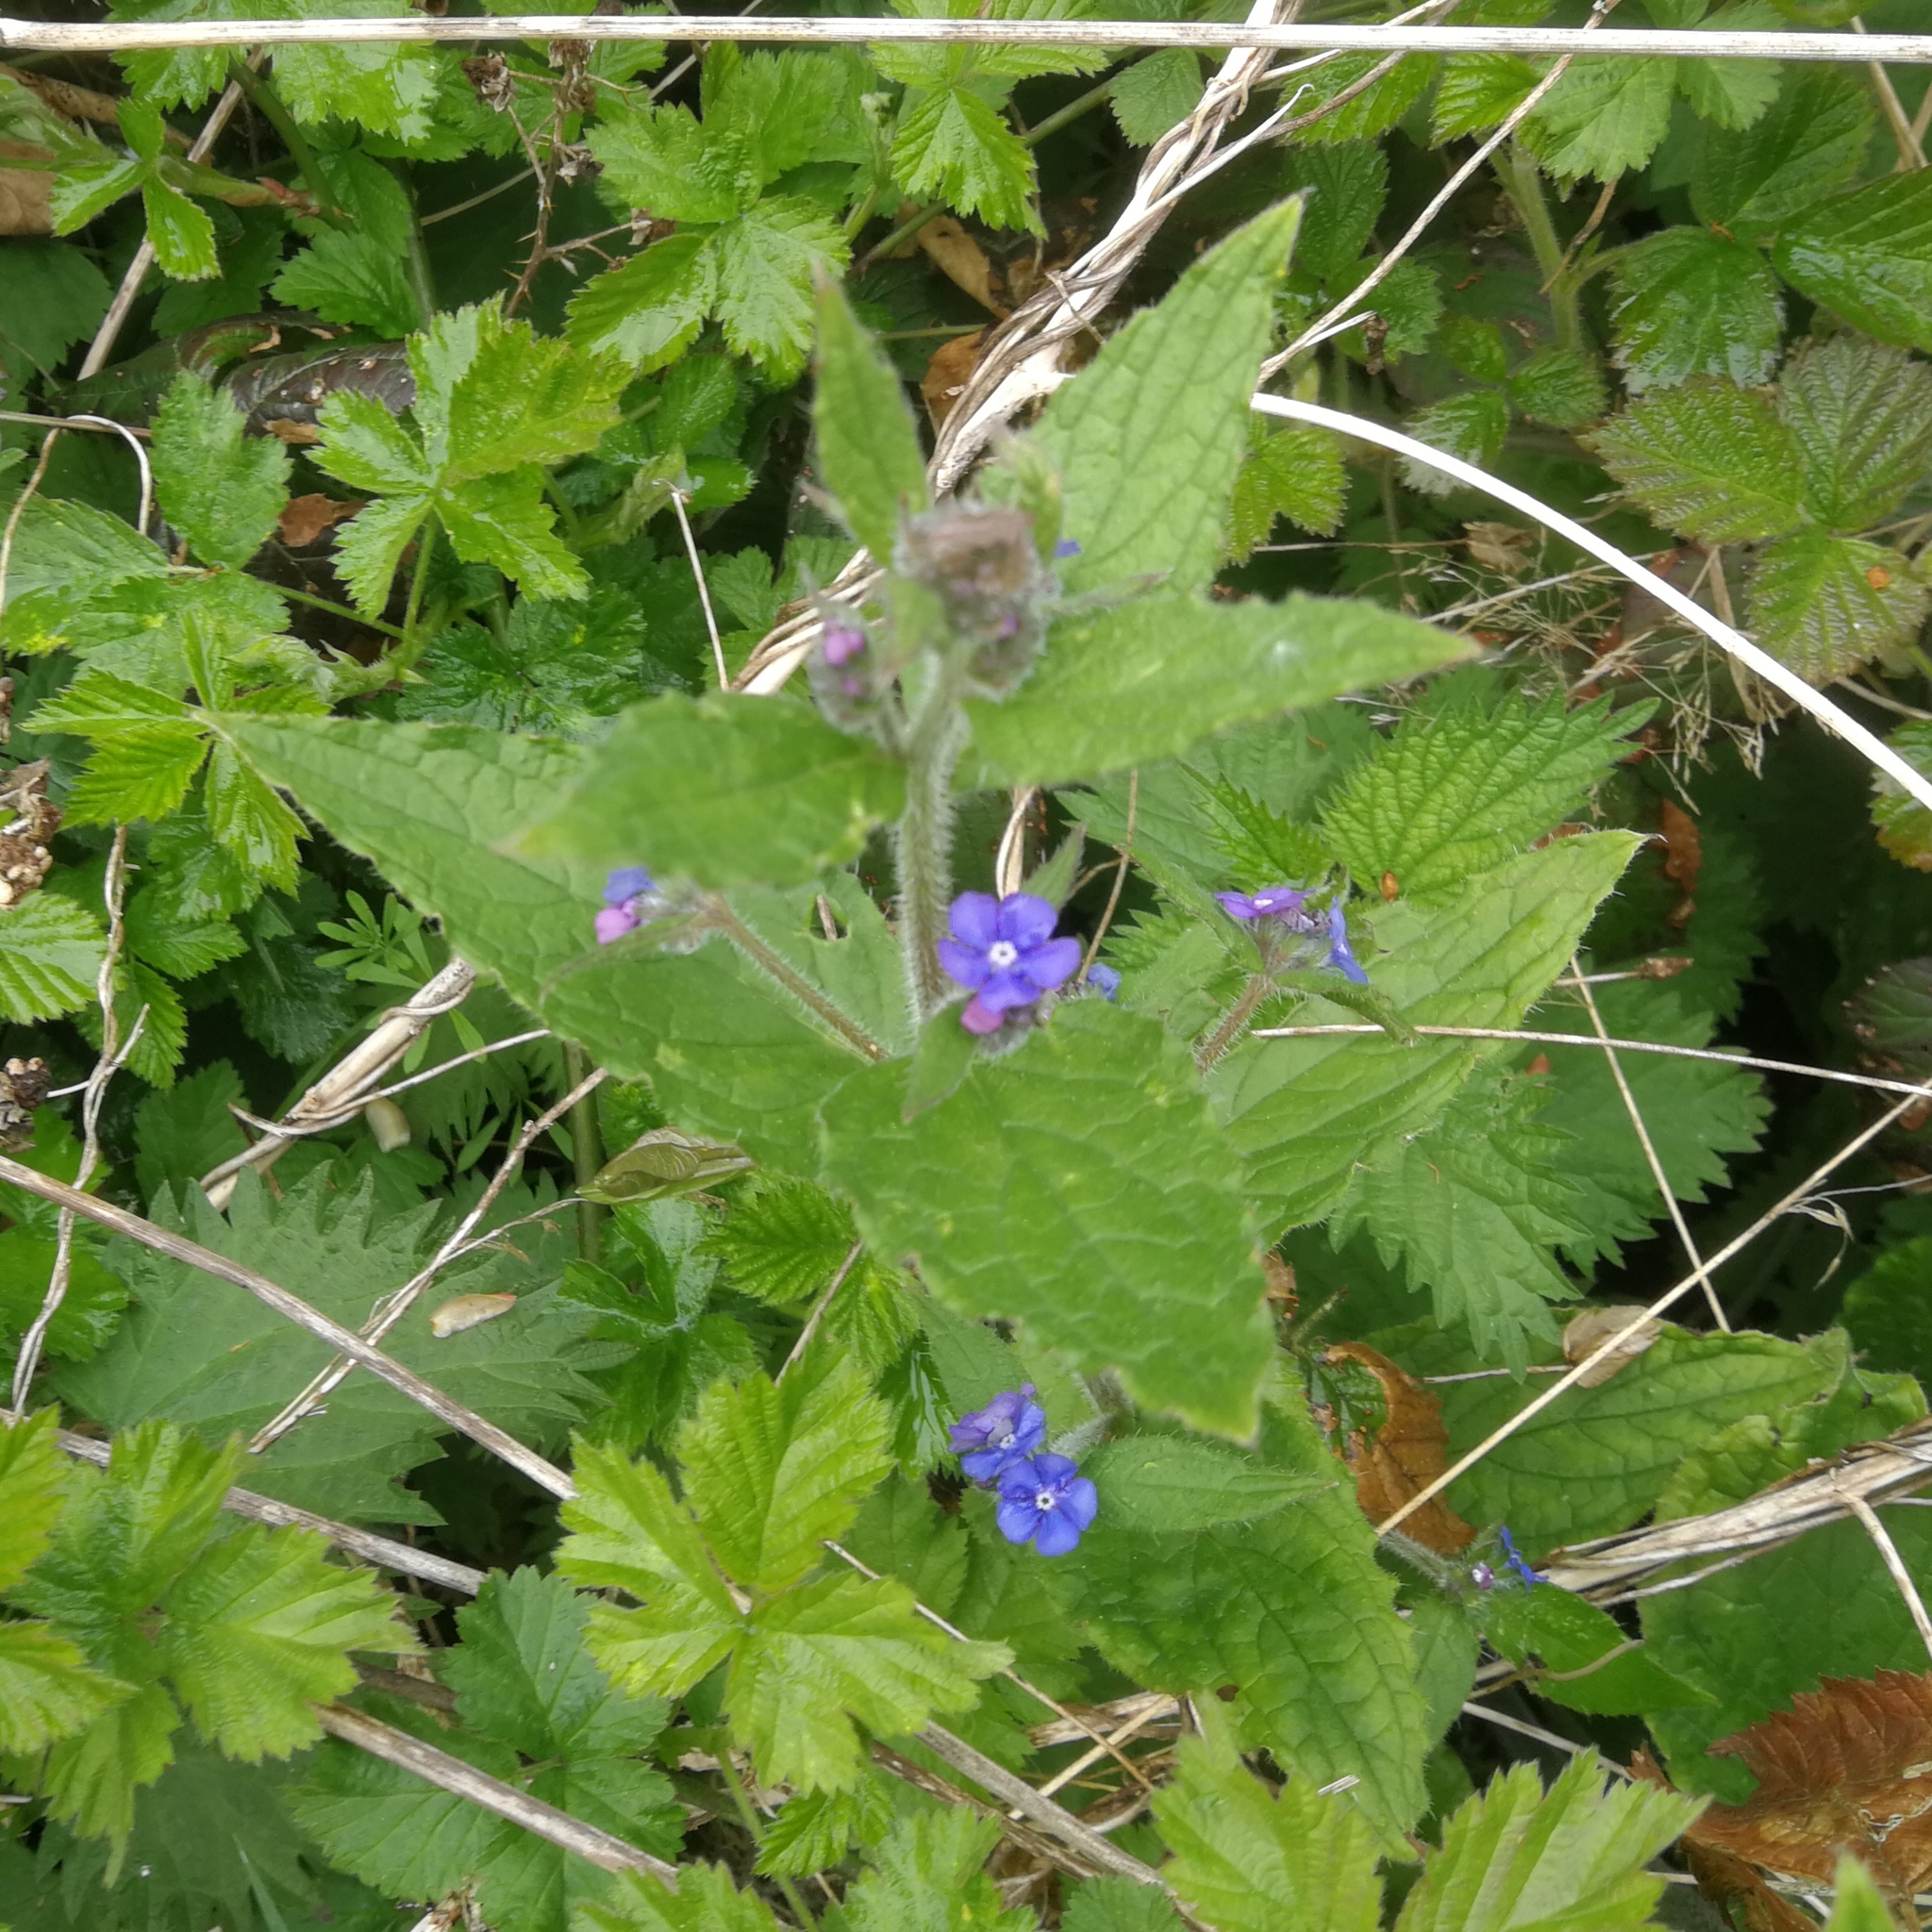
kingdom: Plantae
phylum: Tracheophyta
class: Magnoliopsida
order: Boraginales
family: Boraginaceae
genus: Pentaglottis
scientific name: Pentaglottis sempervirens
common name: Green alkanet
